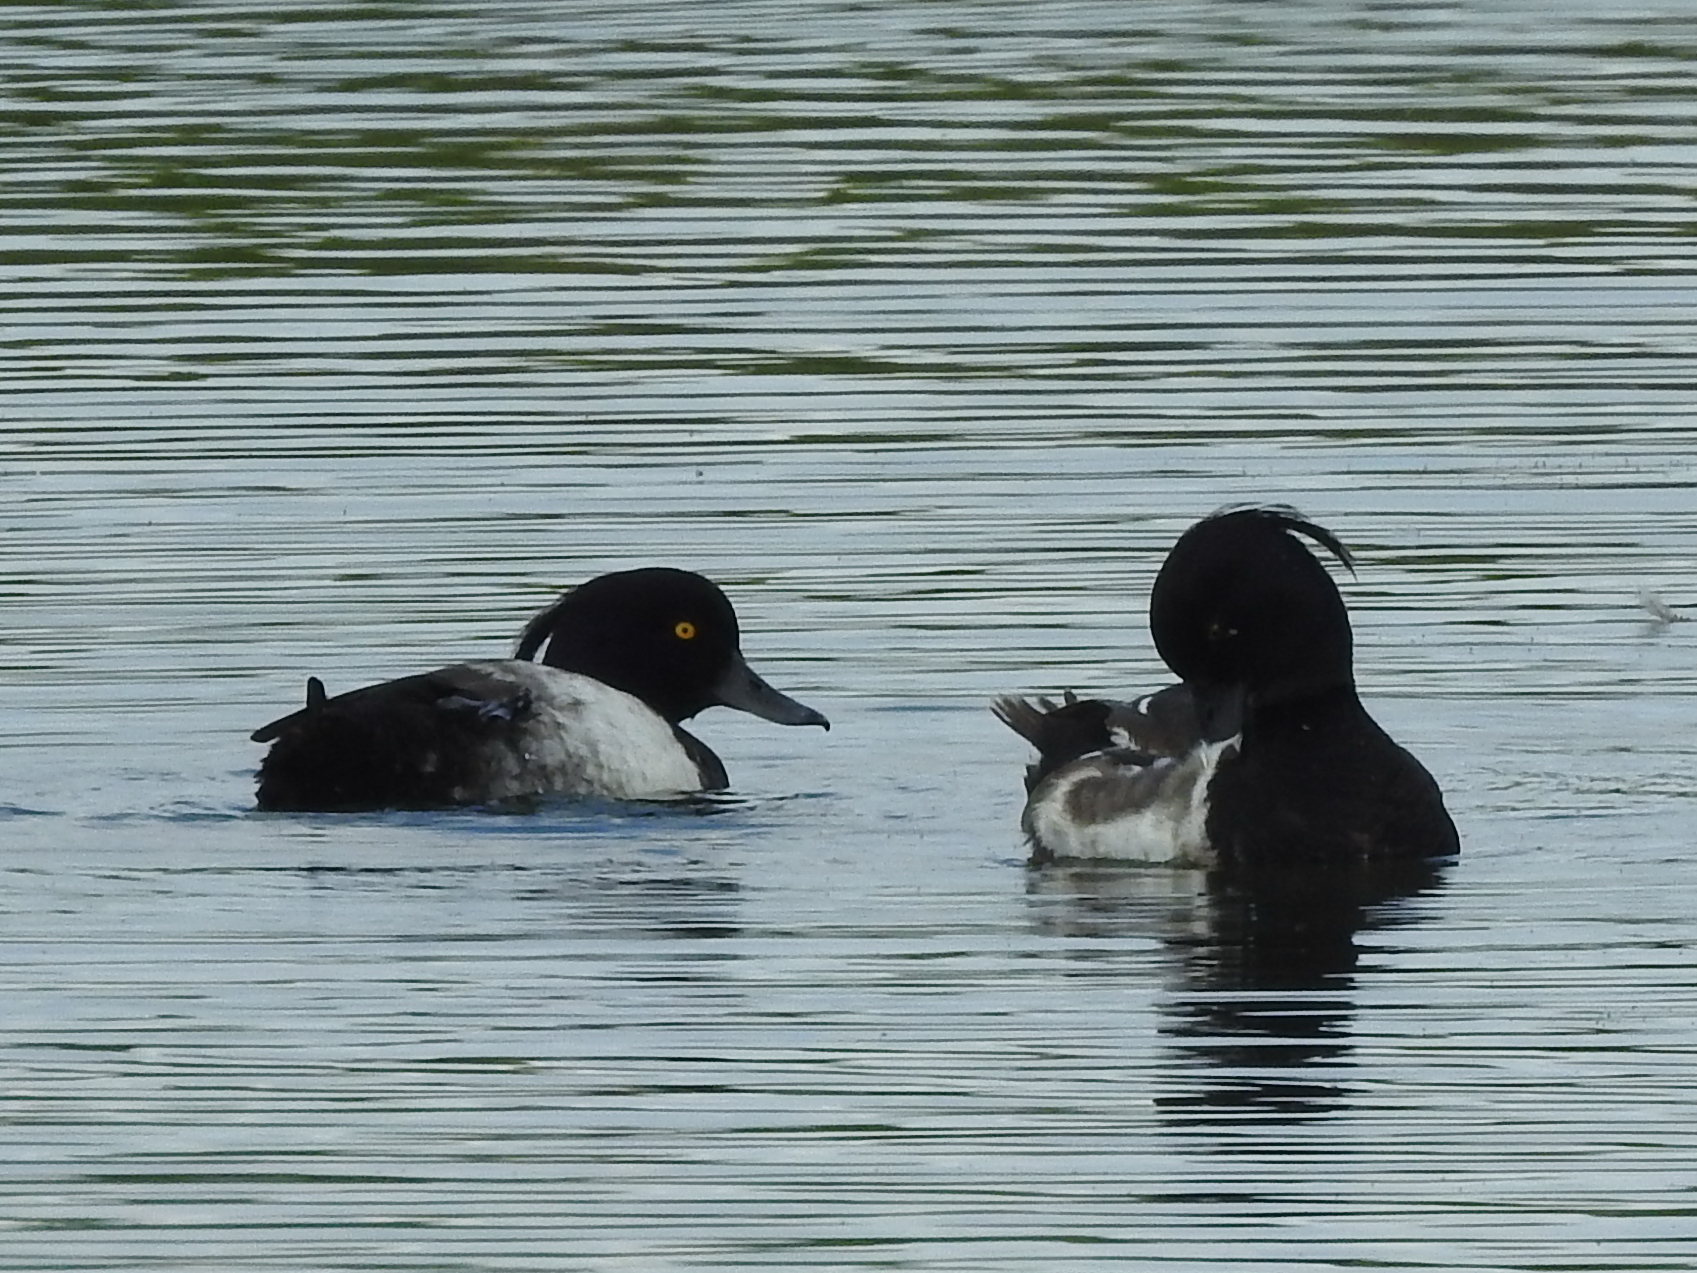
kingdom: Animalia
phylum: Chordata
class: Aves
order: Anseriformes
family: Anatidae
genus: Aythya
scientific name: Aythya fuligula
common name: Tufted duck
